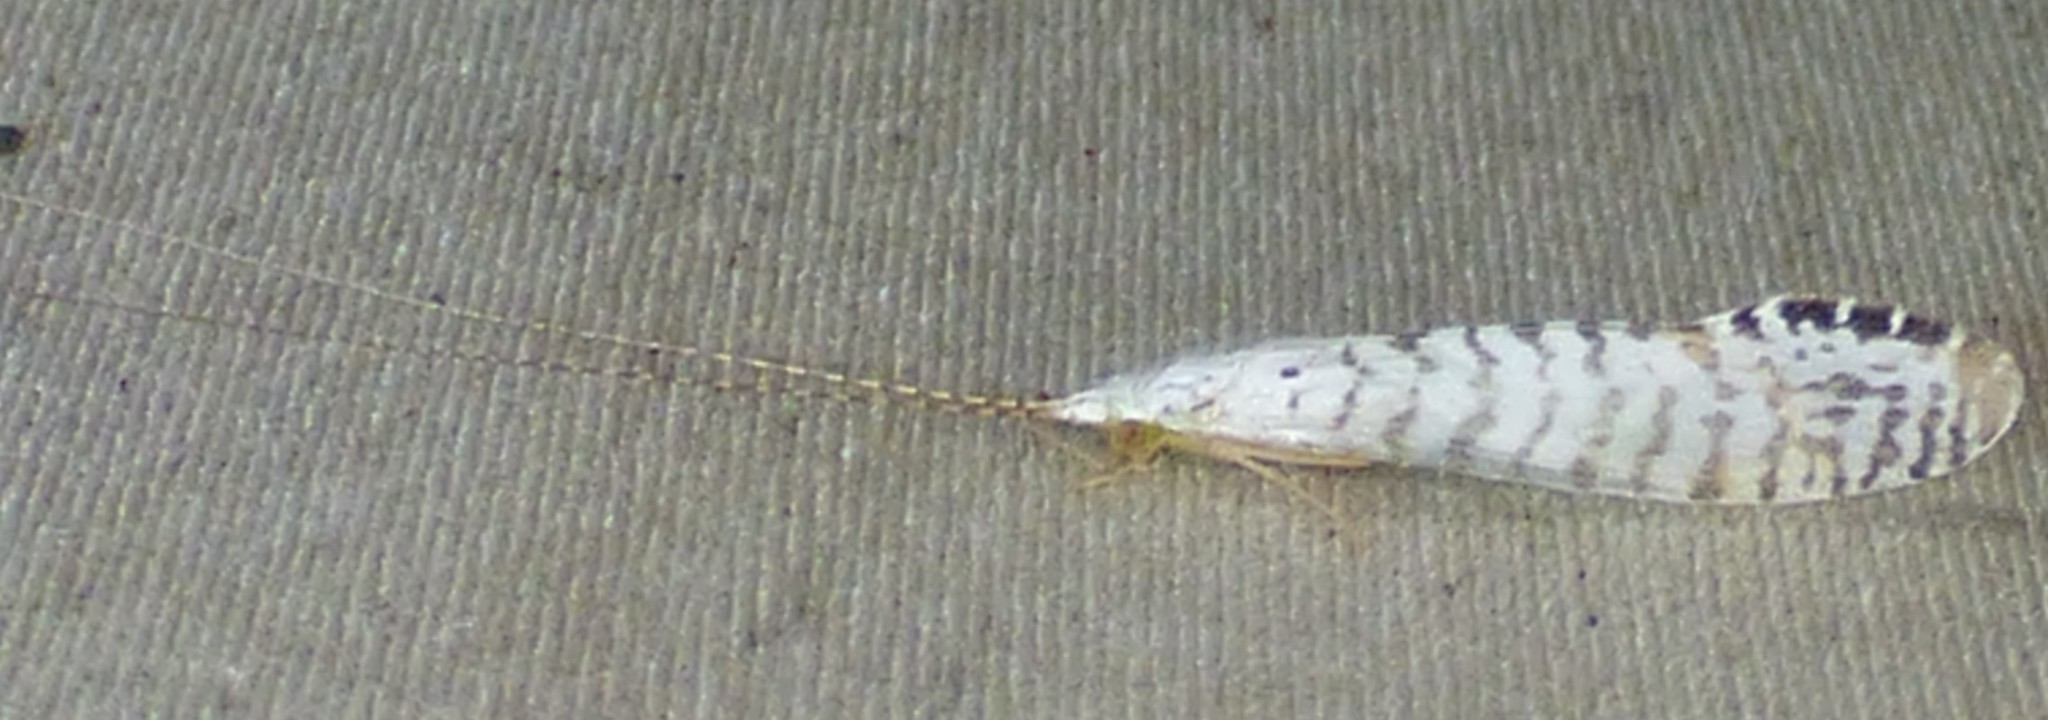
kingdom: Animalia
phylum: Arthropoda
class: Insecta
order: Trichoptera
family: Leptoceridae
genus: Nectopsyche
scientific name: Nectopsyche exquisita
